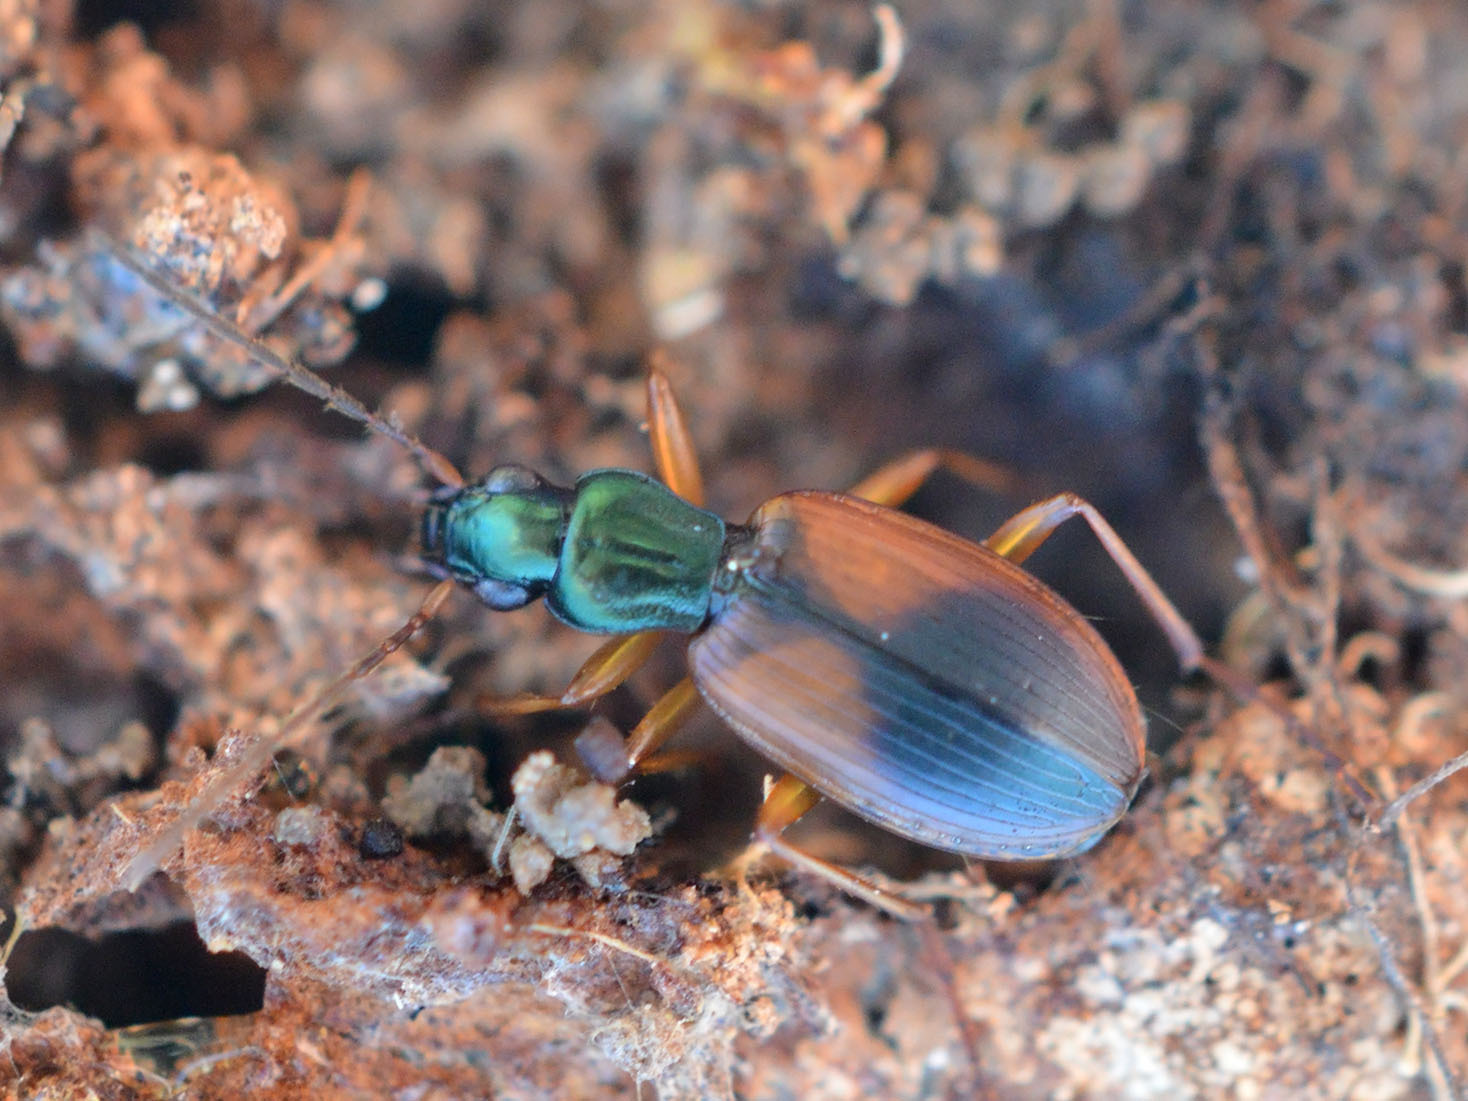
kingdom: Animalia
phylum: Arthropoda
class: Insecta
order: Coleoptera
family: Carabidae
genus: Anchomenus
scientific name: Anchomenus dorsalis
